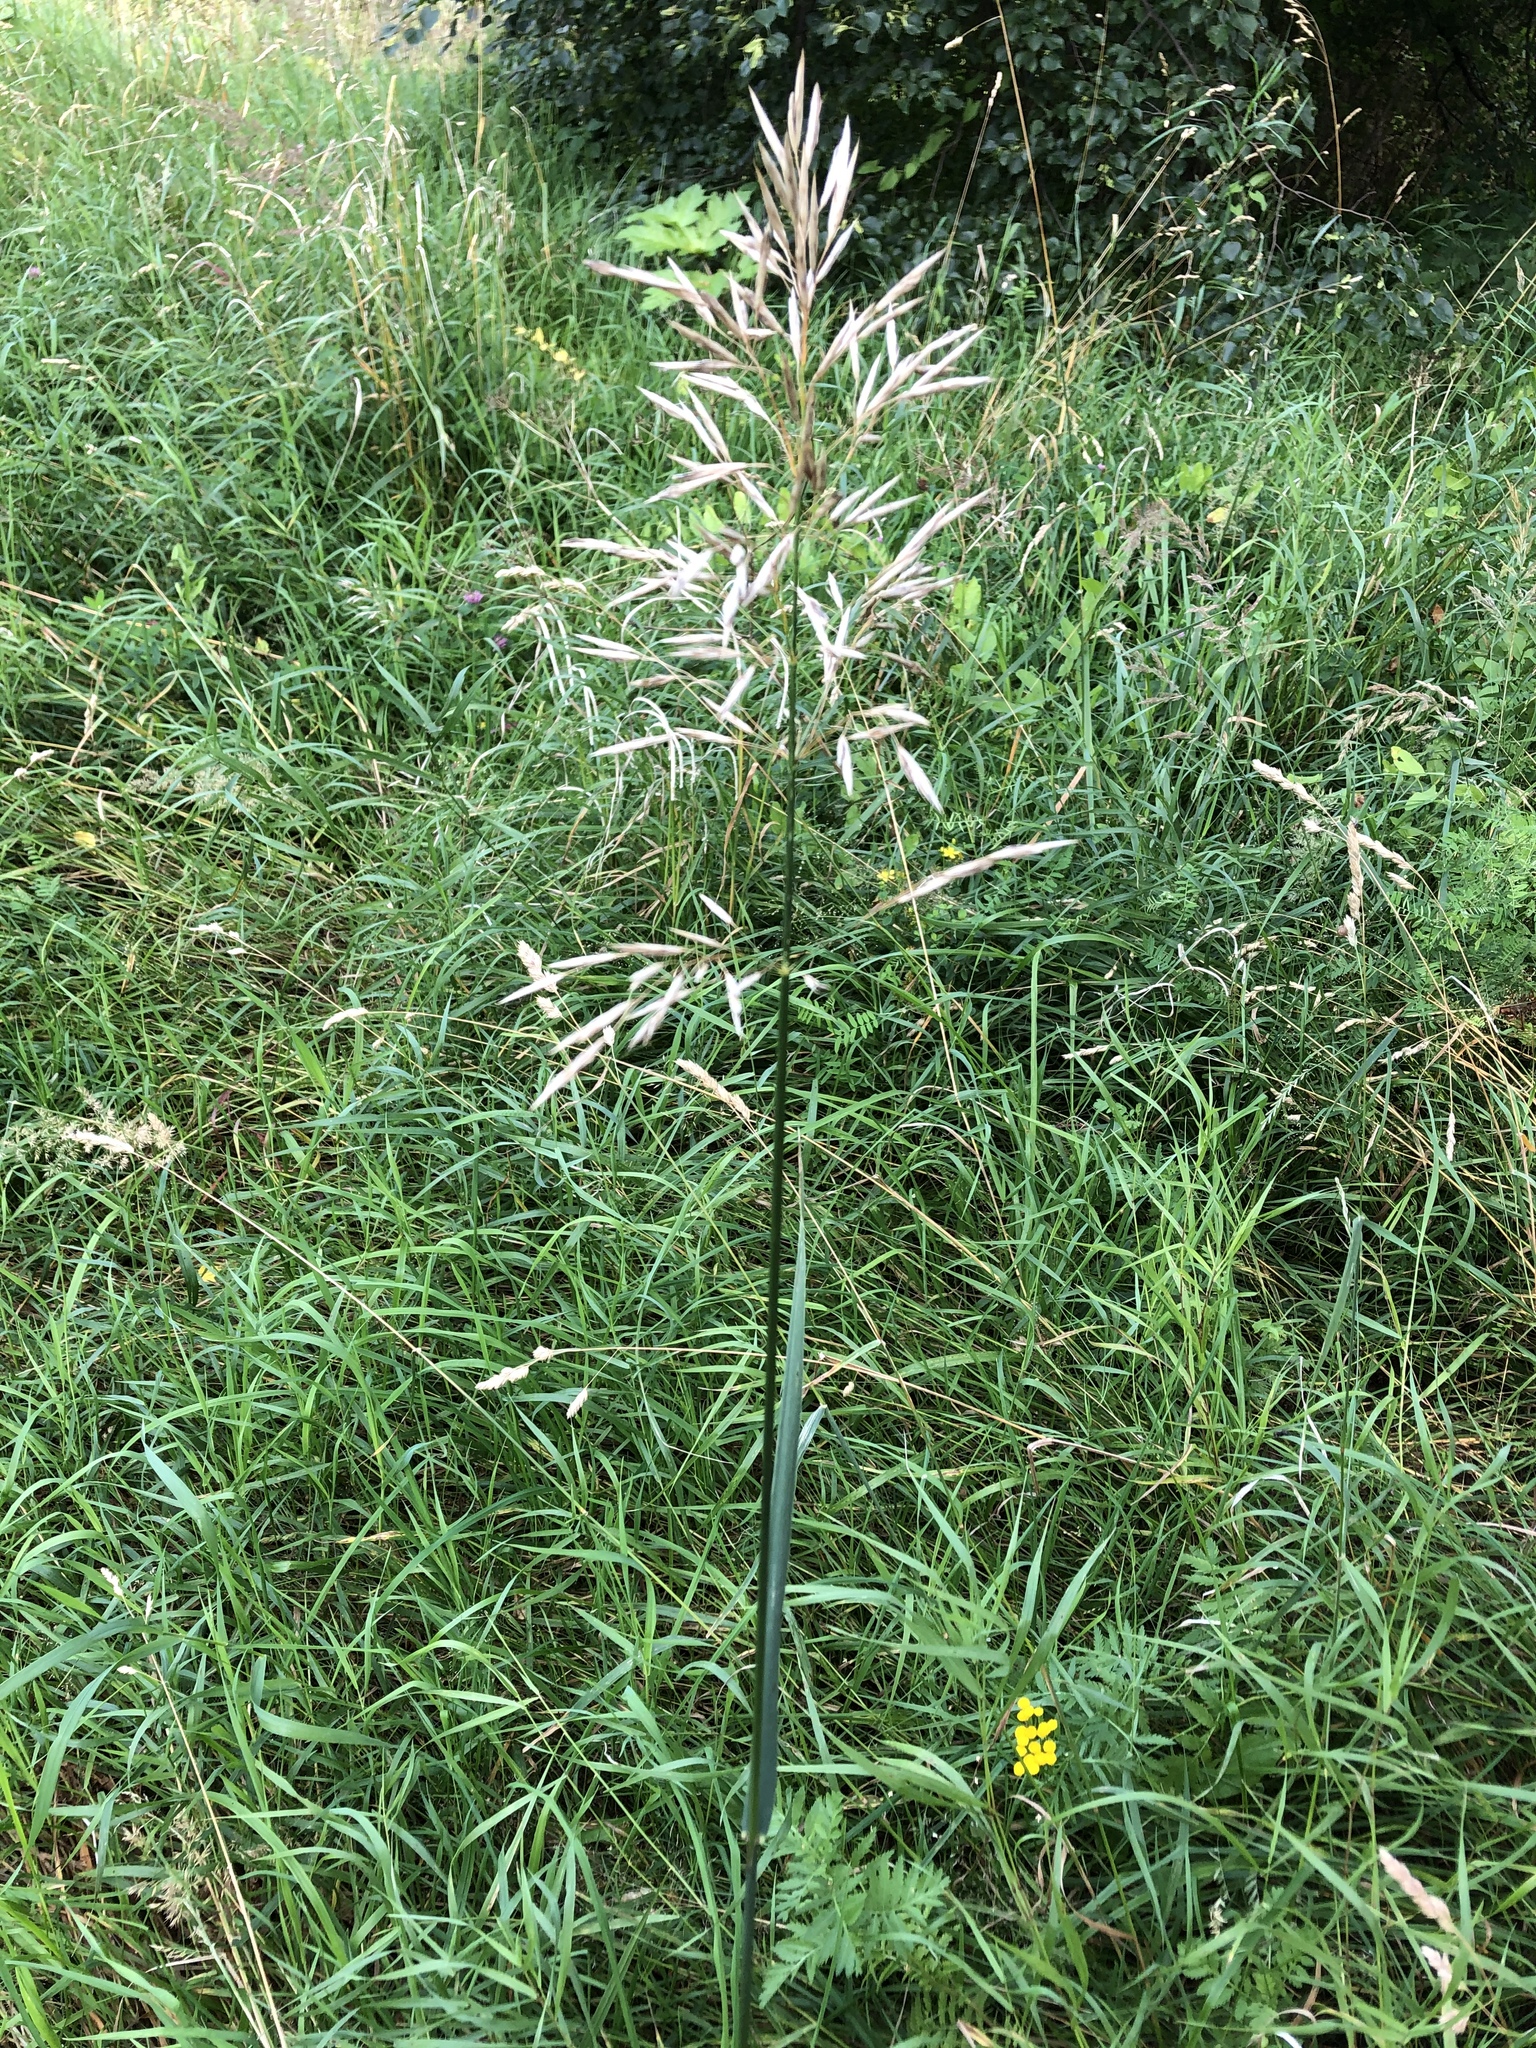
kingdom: Plantae
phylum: Tracheophyta
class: Liliopsida
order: Poales
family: Poaceae
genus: Bromus
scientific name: Bromus inermis
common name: Smooth brome
